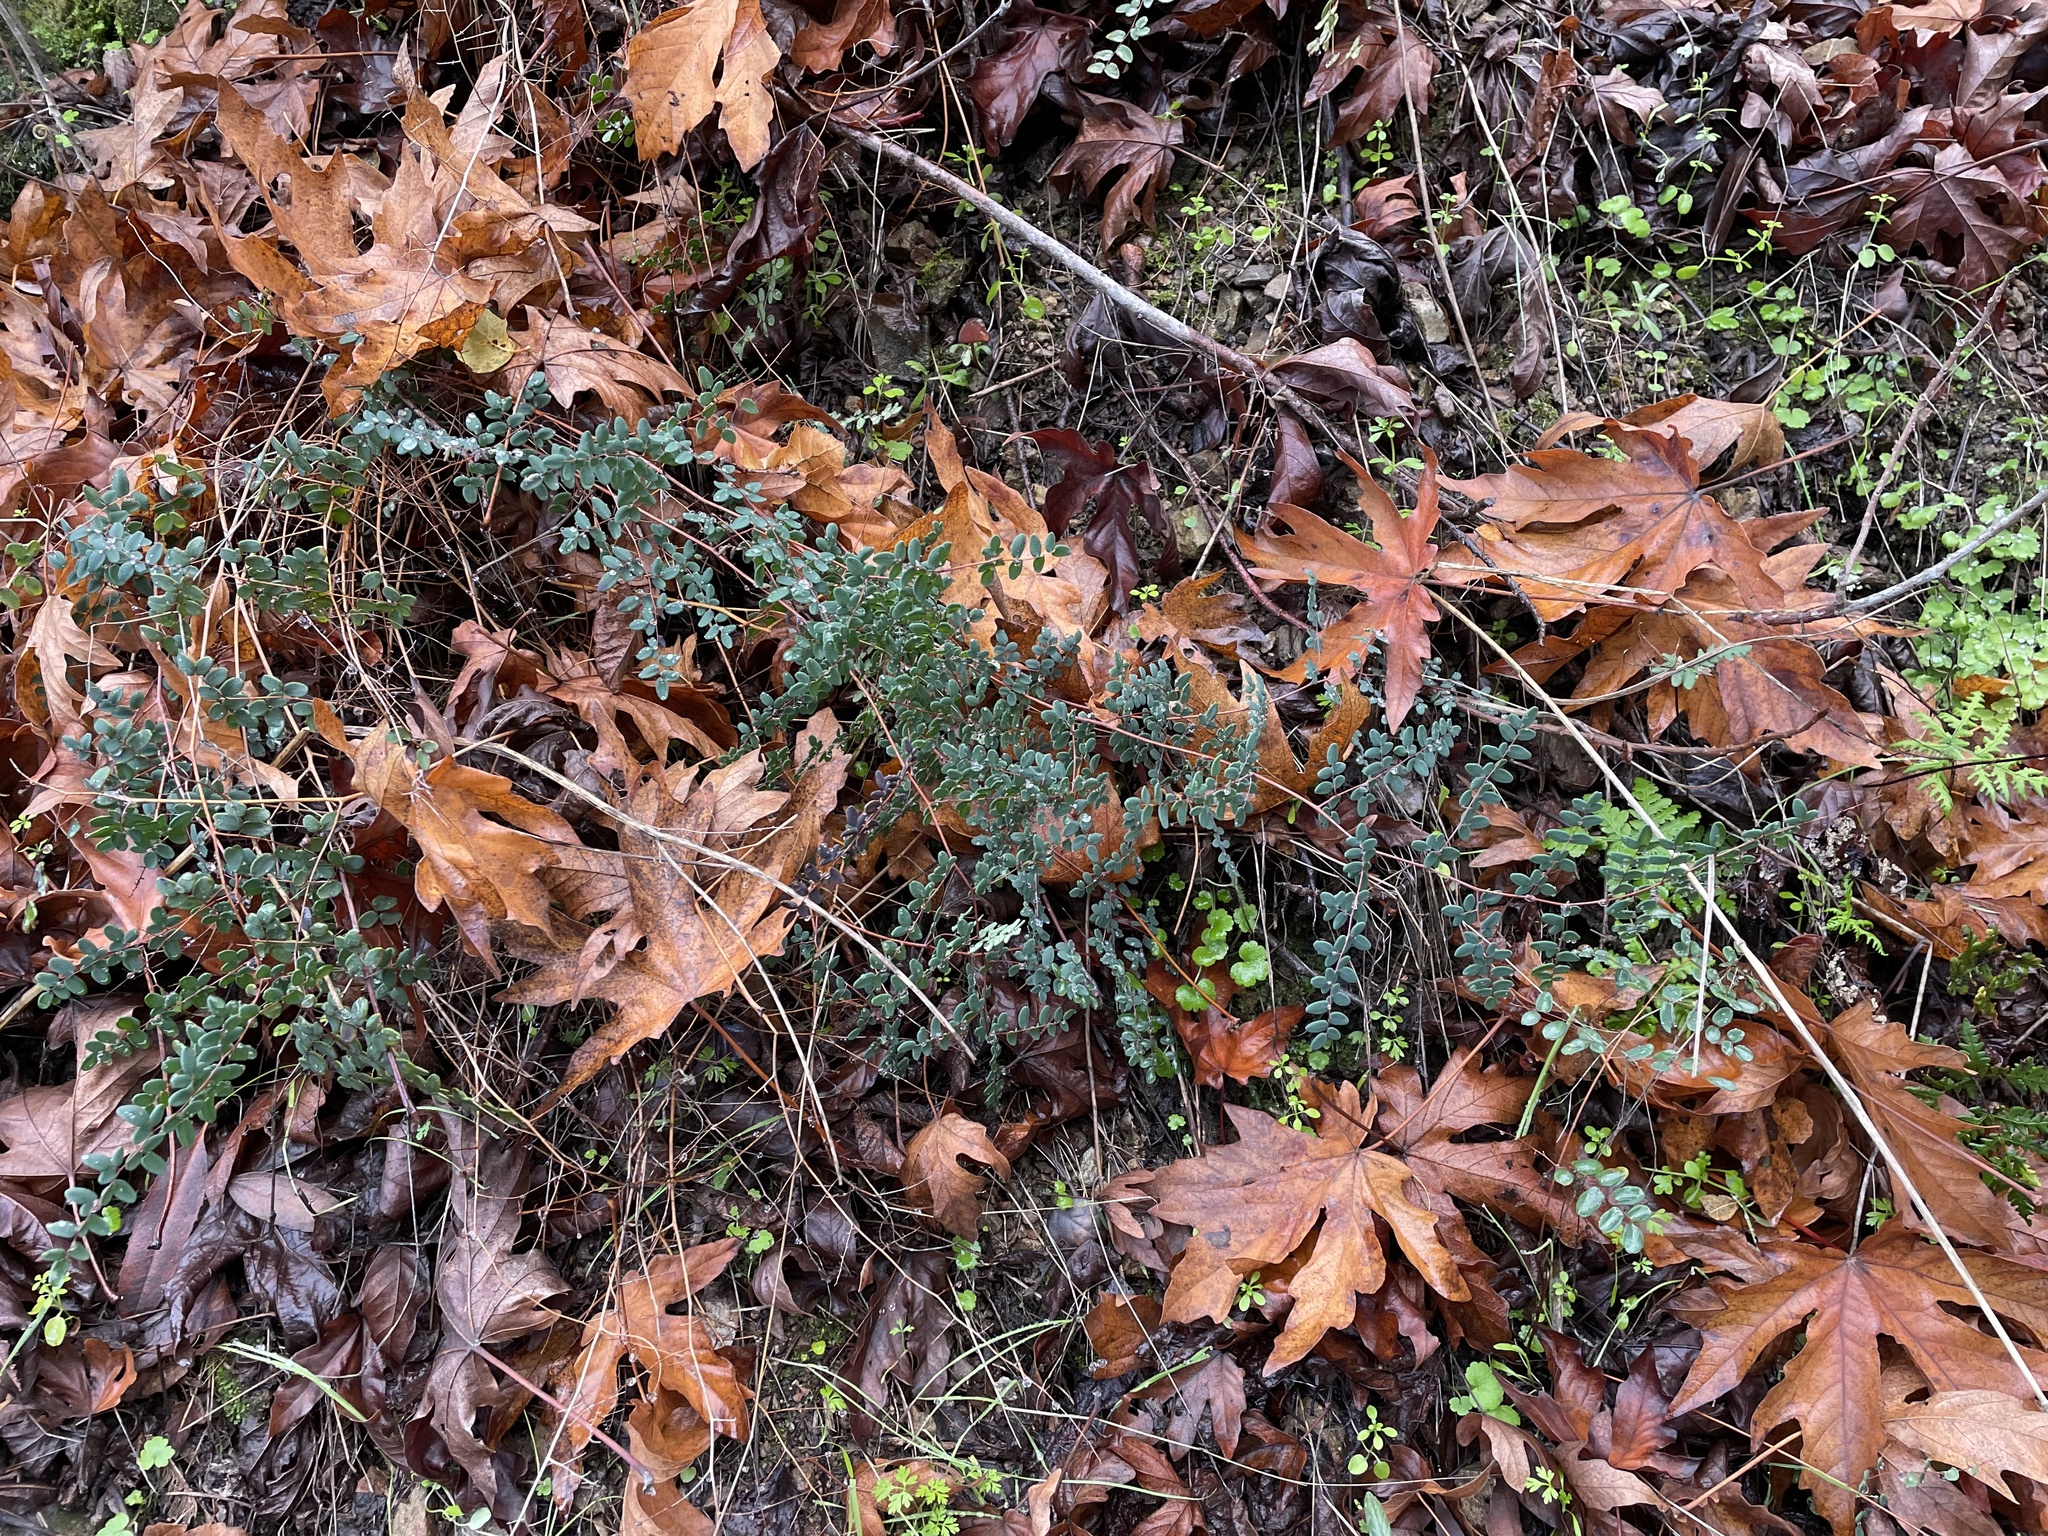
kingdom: Plantae
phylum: Tracheophyta
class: Polypodiopsida
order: Polypodiales
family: Pteridaceae
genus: Pellaea
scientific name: Pellaea andromedifolia
